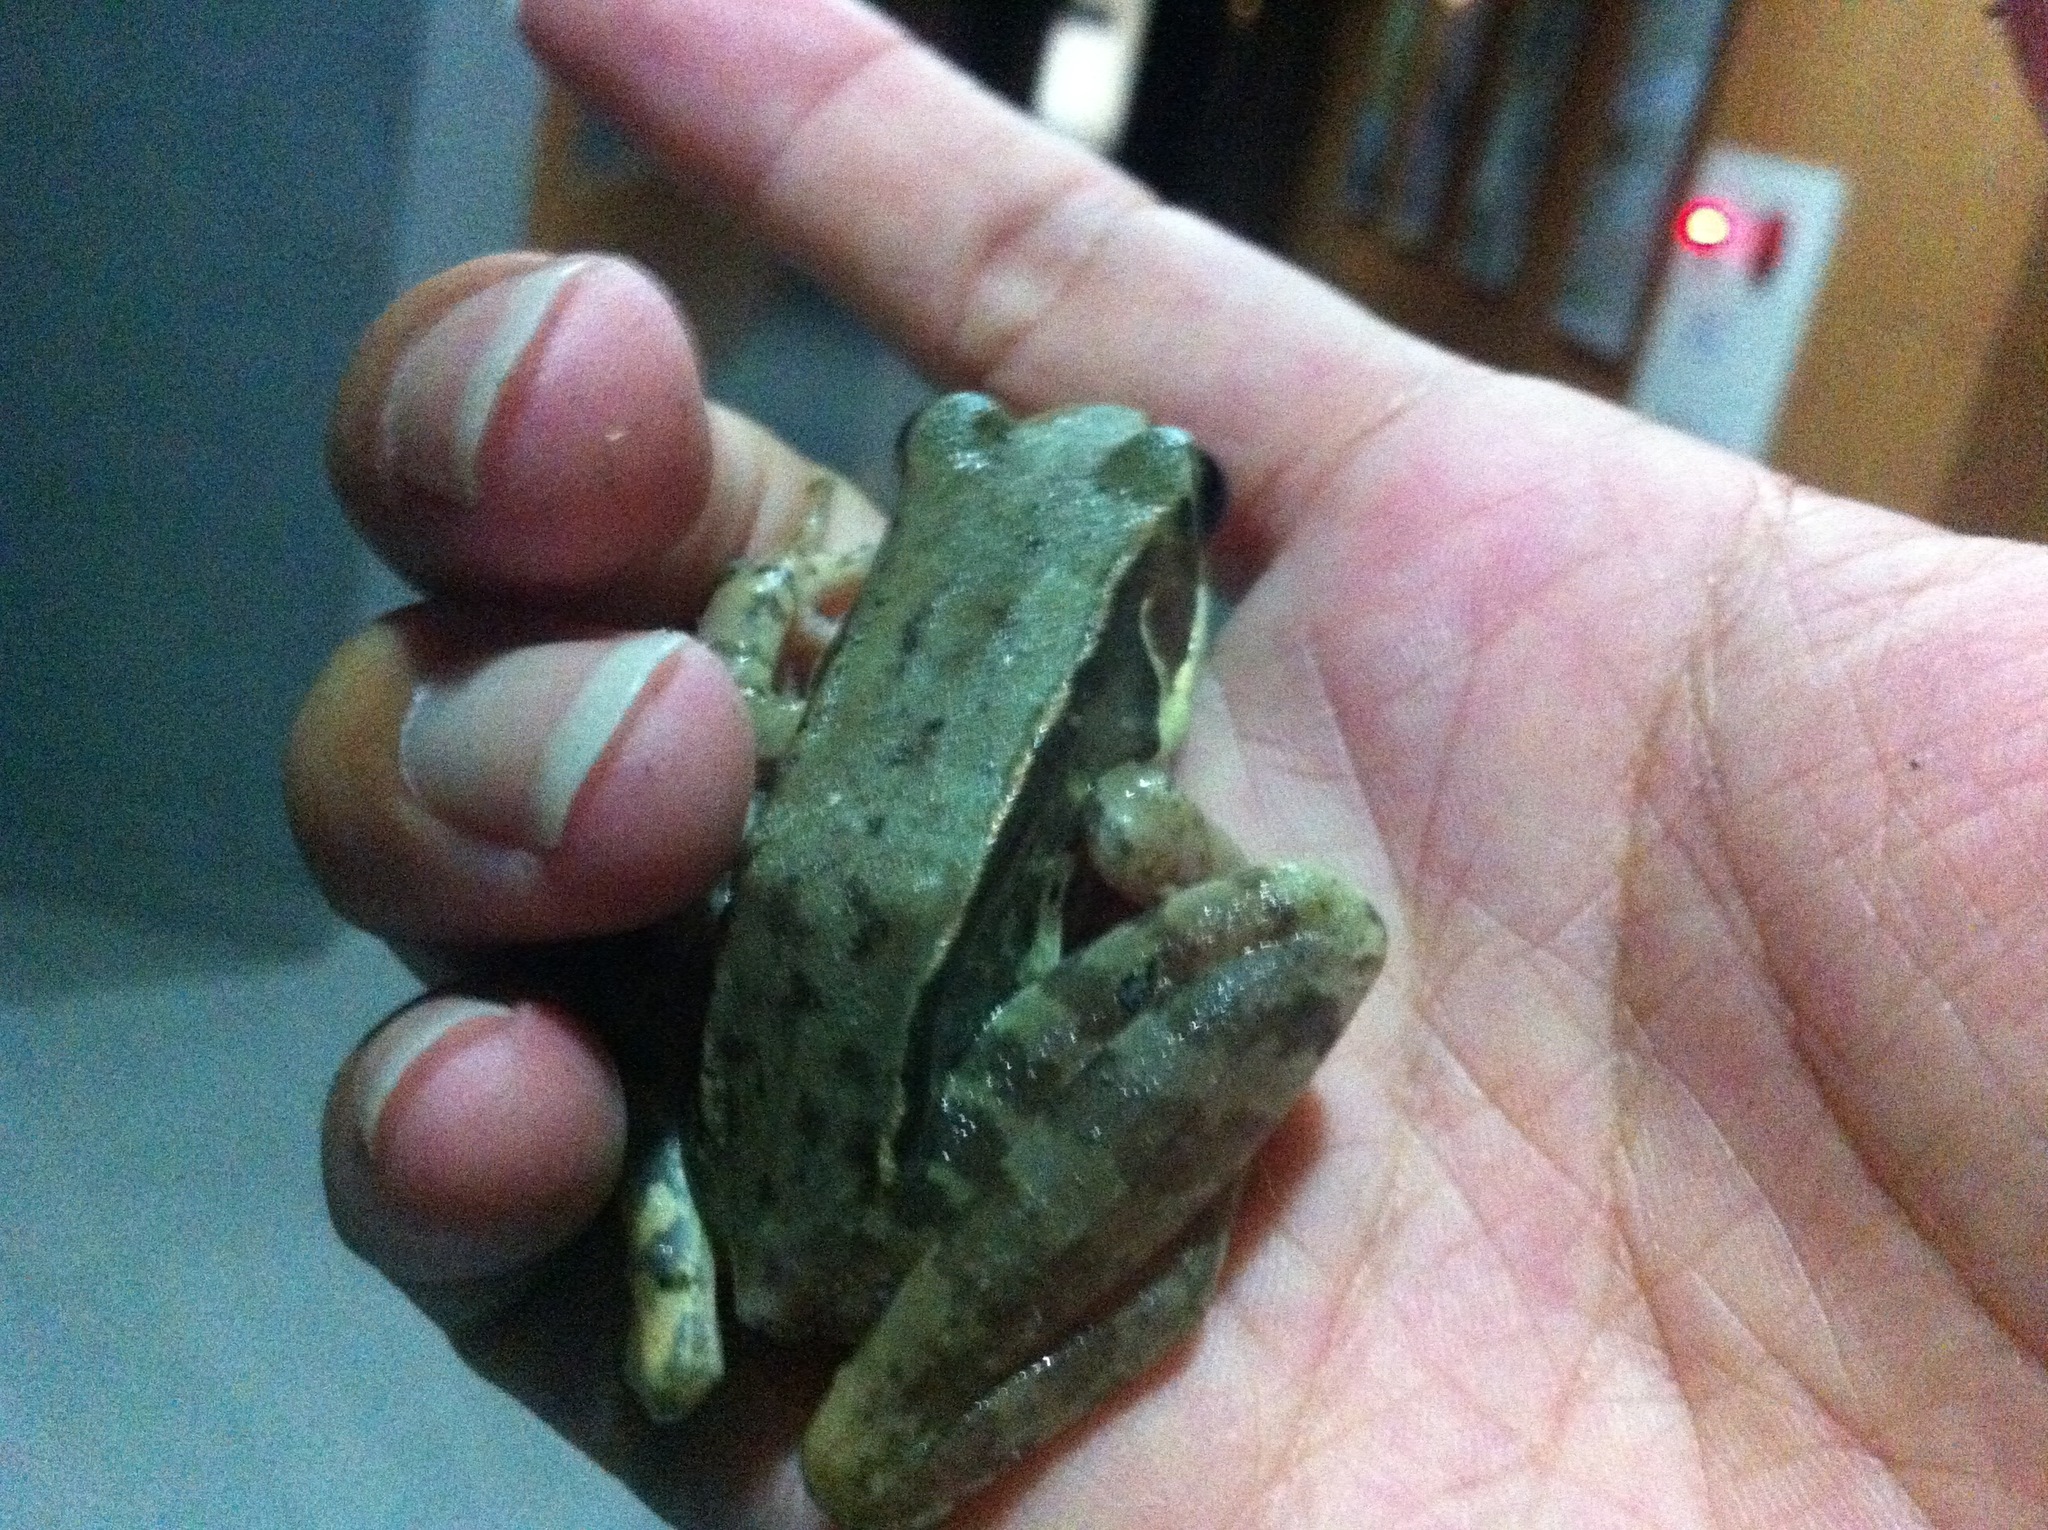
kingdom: Animalia
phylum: Chordata
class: Amphibia
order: Anura
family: Ranidae
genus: Sylvirana
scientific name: Sylvirana guentheri
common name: Guenther's amoy frog
